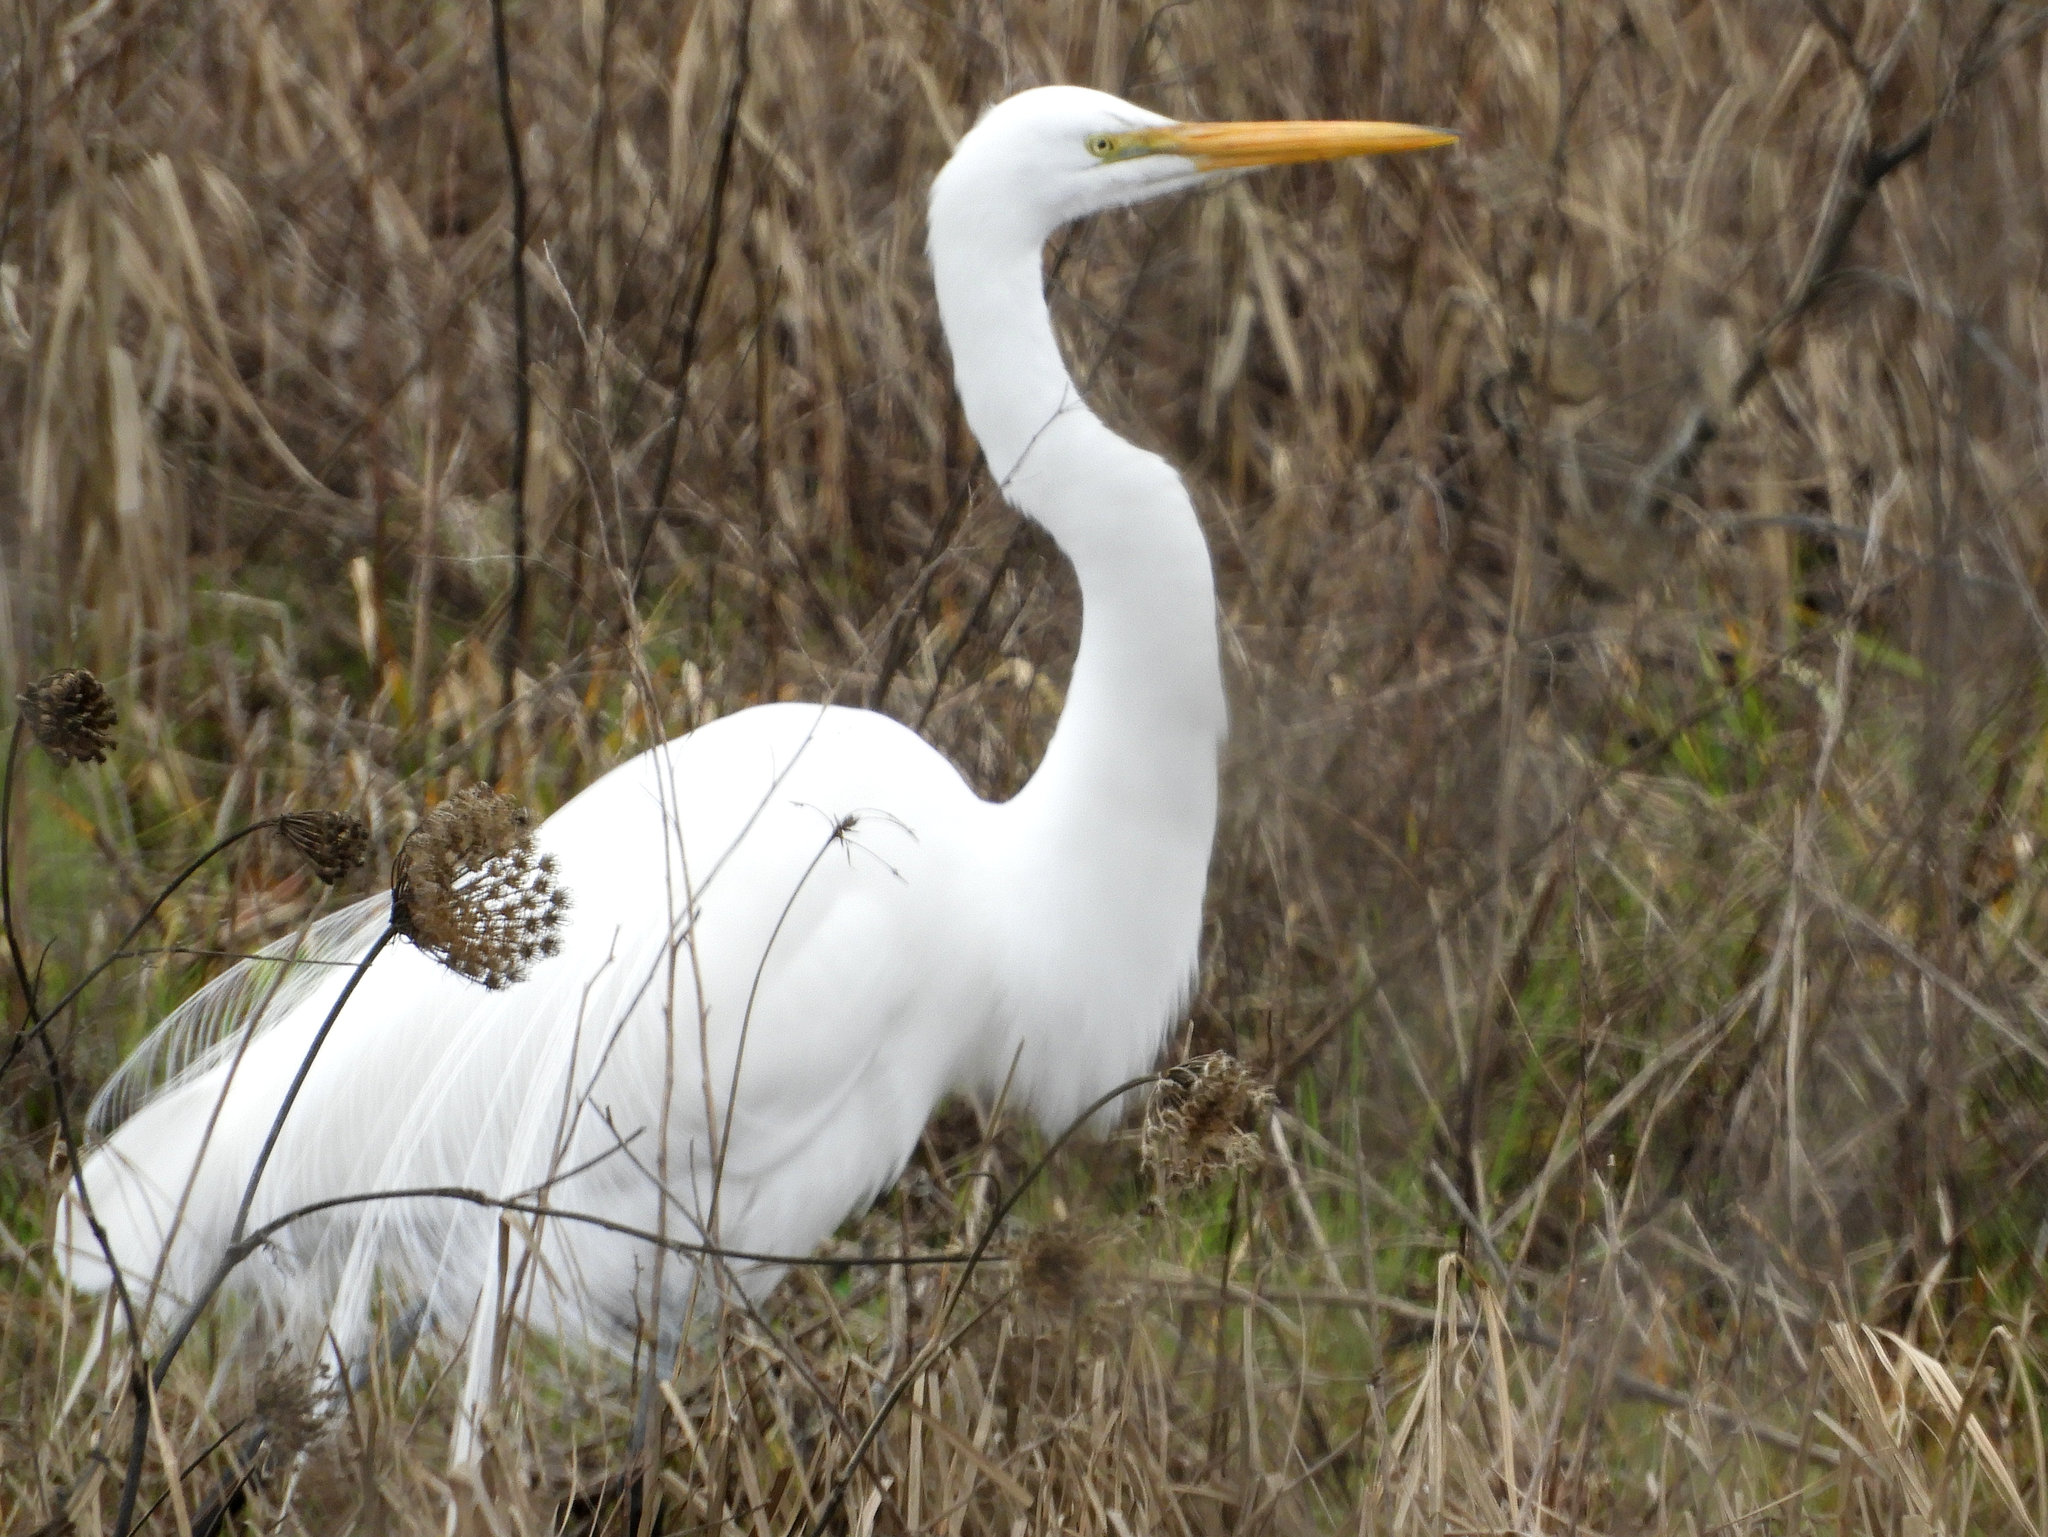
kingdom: Animalia
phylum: Chordata
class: Aves
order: Pelecaniformes
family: Ardeidae
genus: Ardea
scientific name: Ardea alba
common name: Great egret
